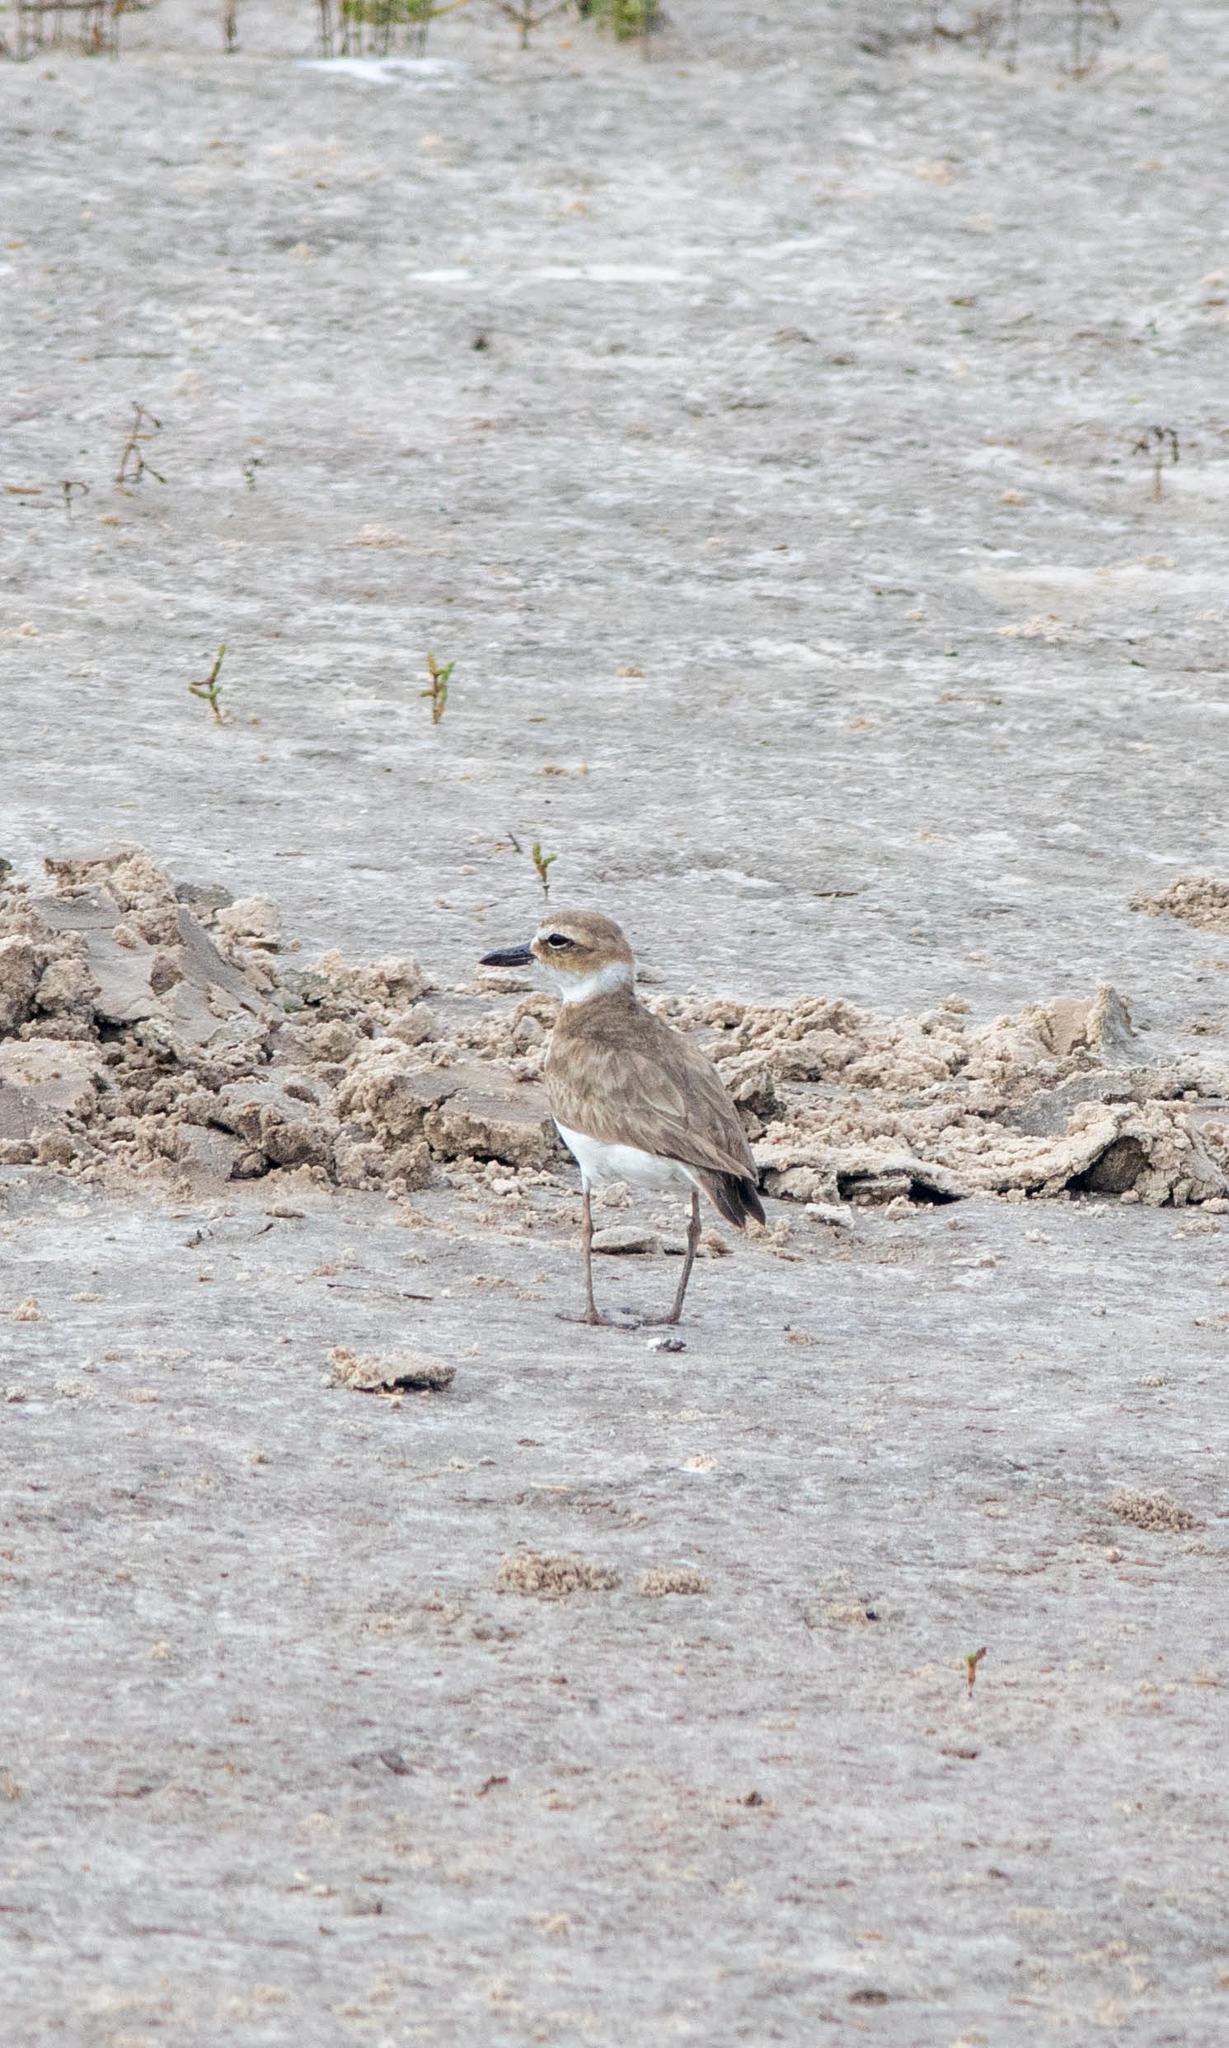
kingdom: Animalia
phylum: Chordata
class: Aves
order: Charadriiformes
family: Charadriidae
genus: Anarhynchus
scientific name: Anarhynchus
